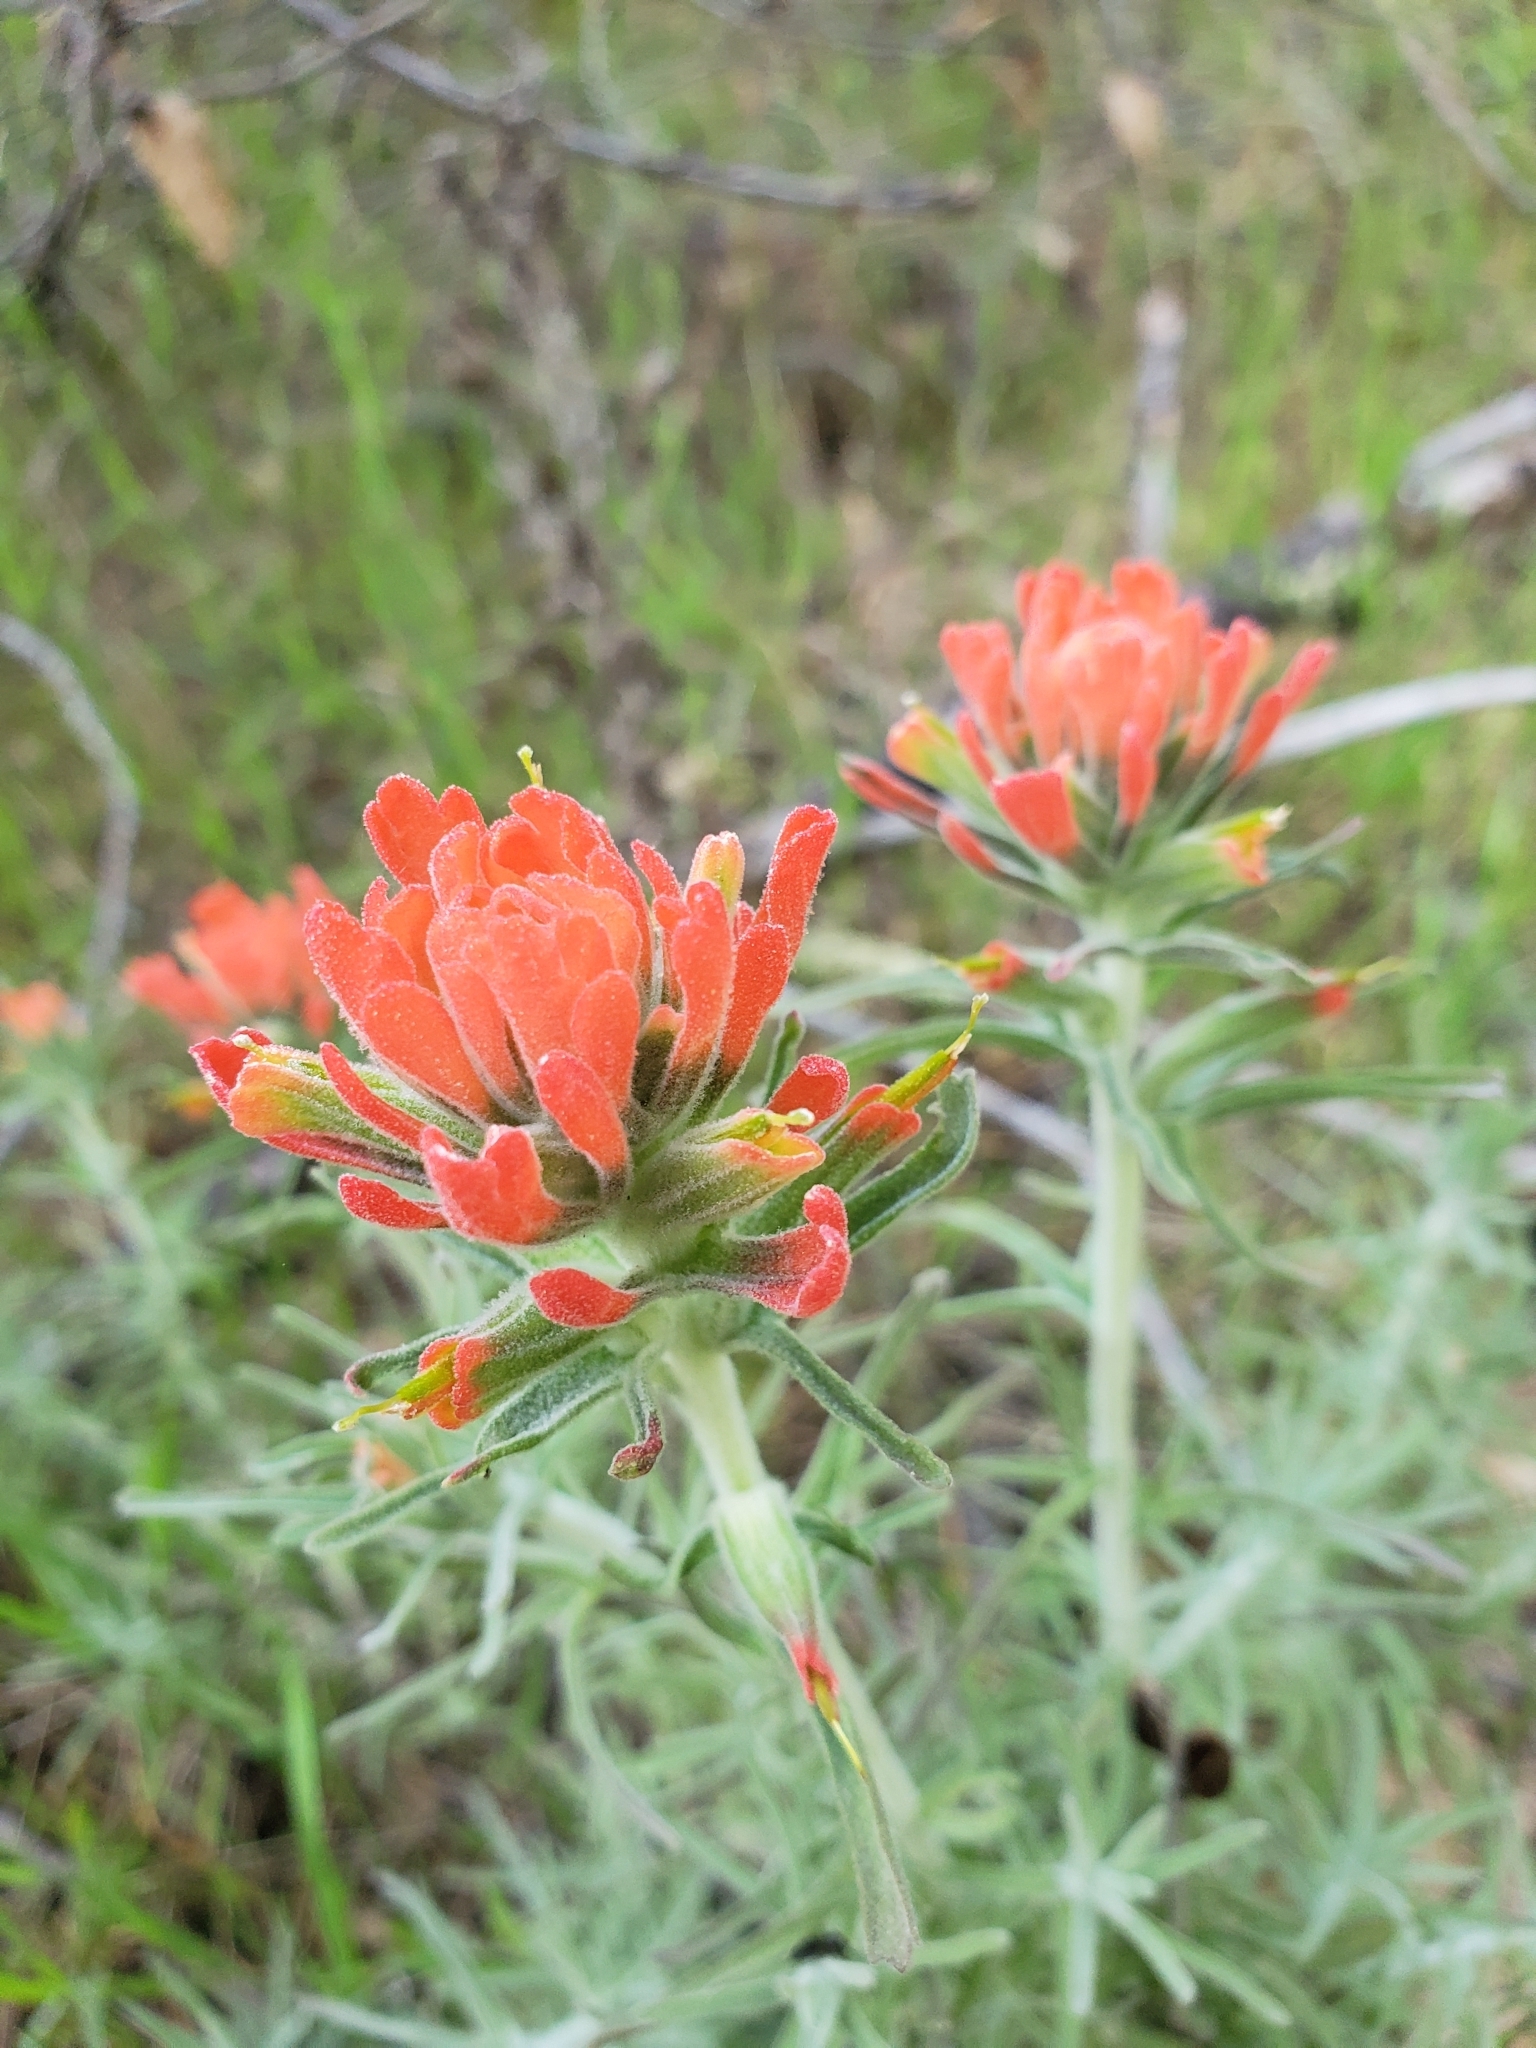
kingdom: Plantae
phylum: Tracheophyta
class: Magnoliopsida
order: Lamiales
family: Orobanchaceae
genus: Castilleja
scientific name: Castilleja foliolosa
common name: Woolly indian paintbrush
